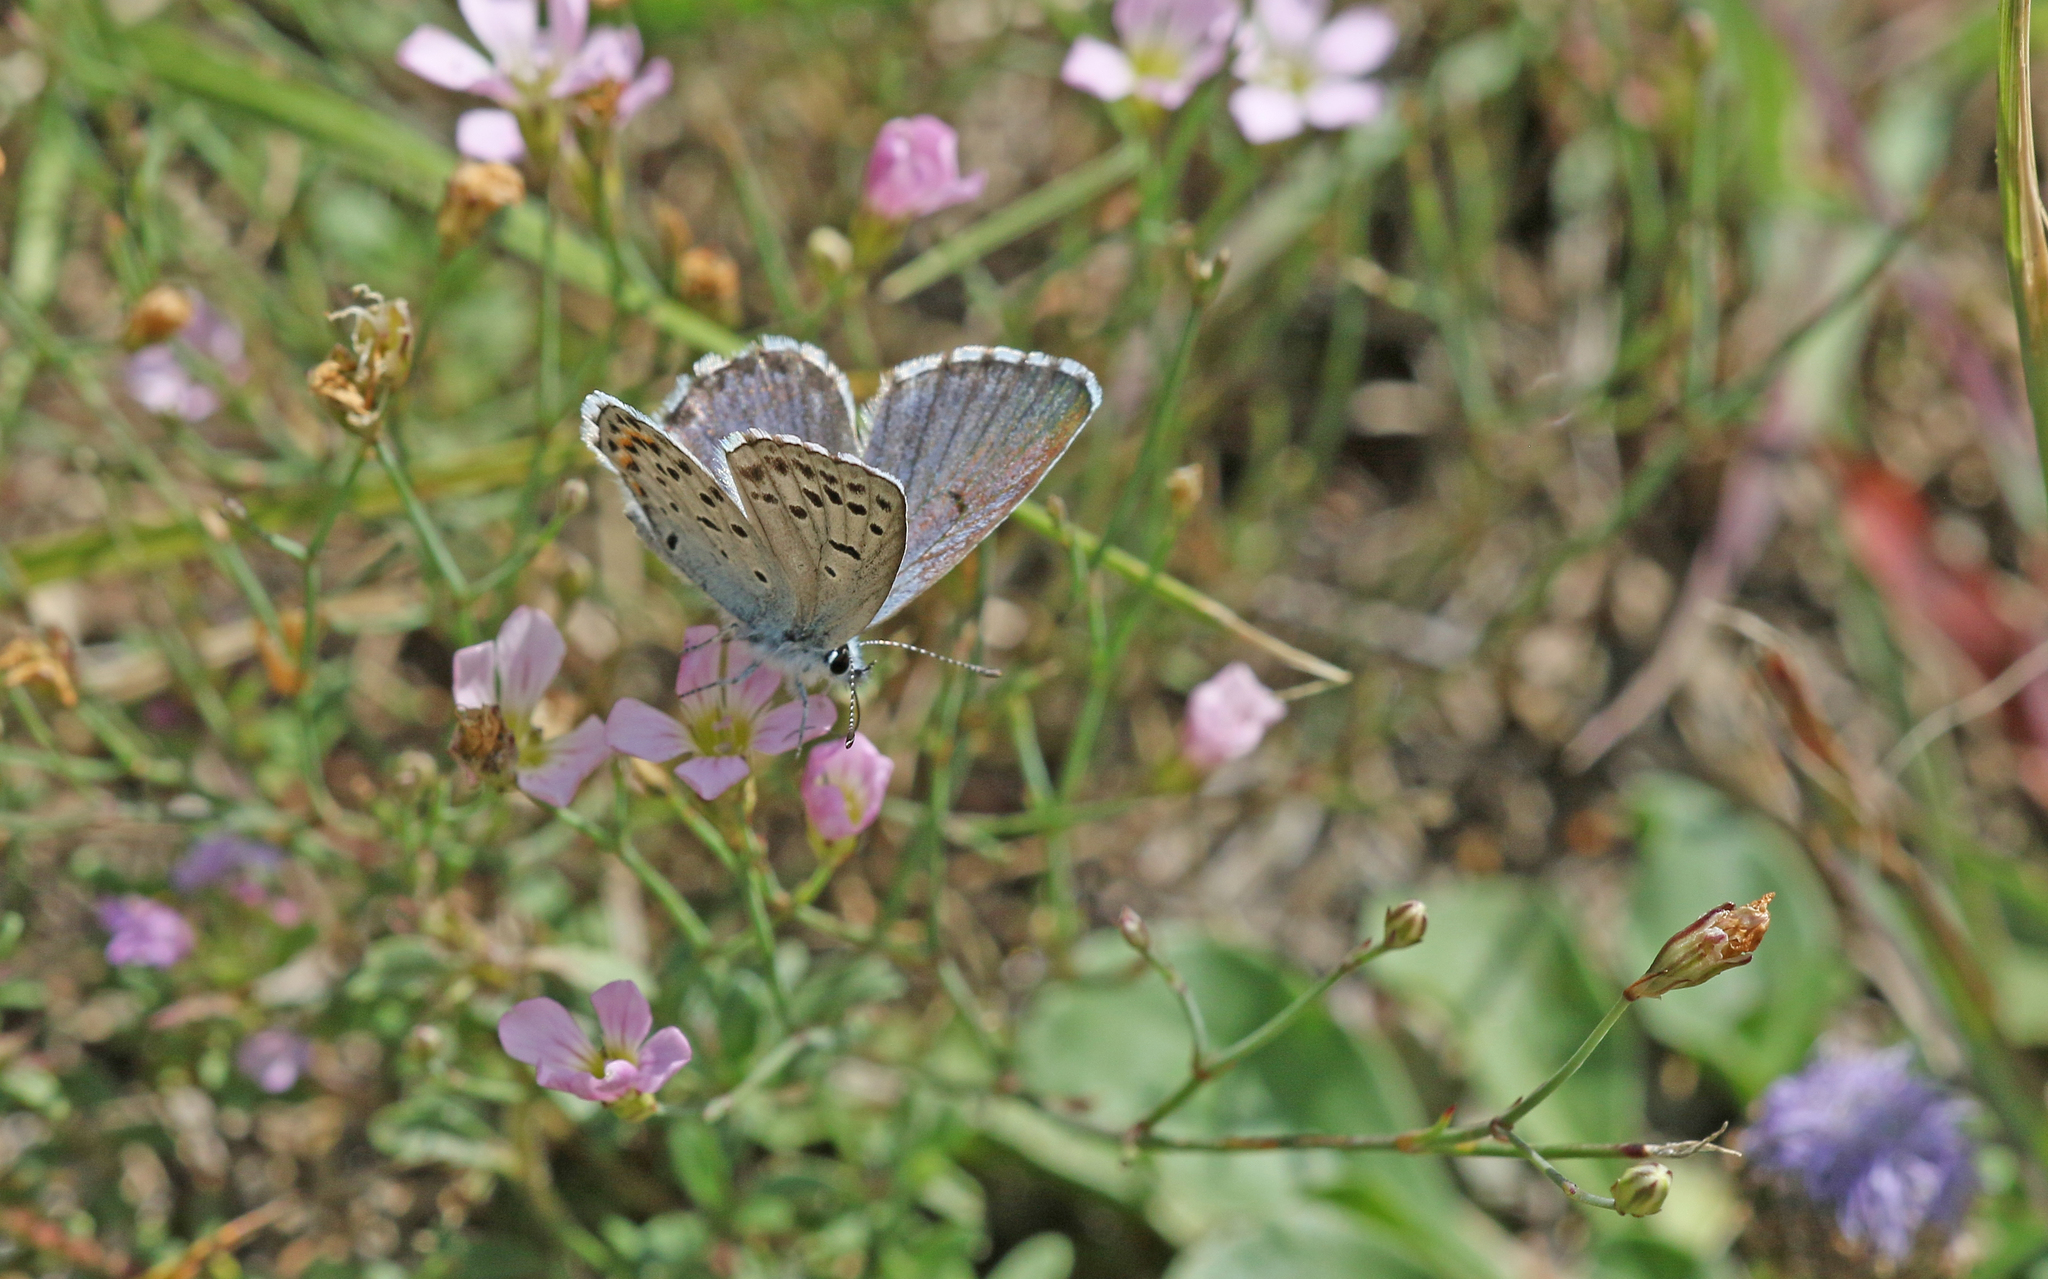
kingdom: Animalia
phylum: Arthropoda
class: Insecta
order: Lepidoptera
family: Lycaenidae
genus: Pseudophilotes
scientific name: Pseudophilotes baton
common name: Baton blue
